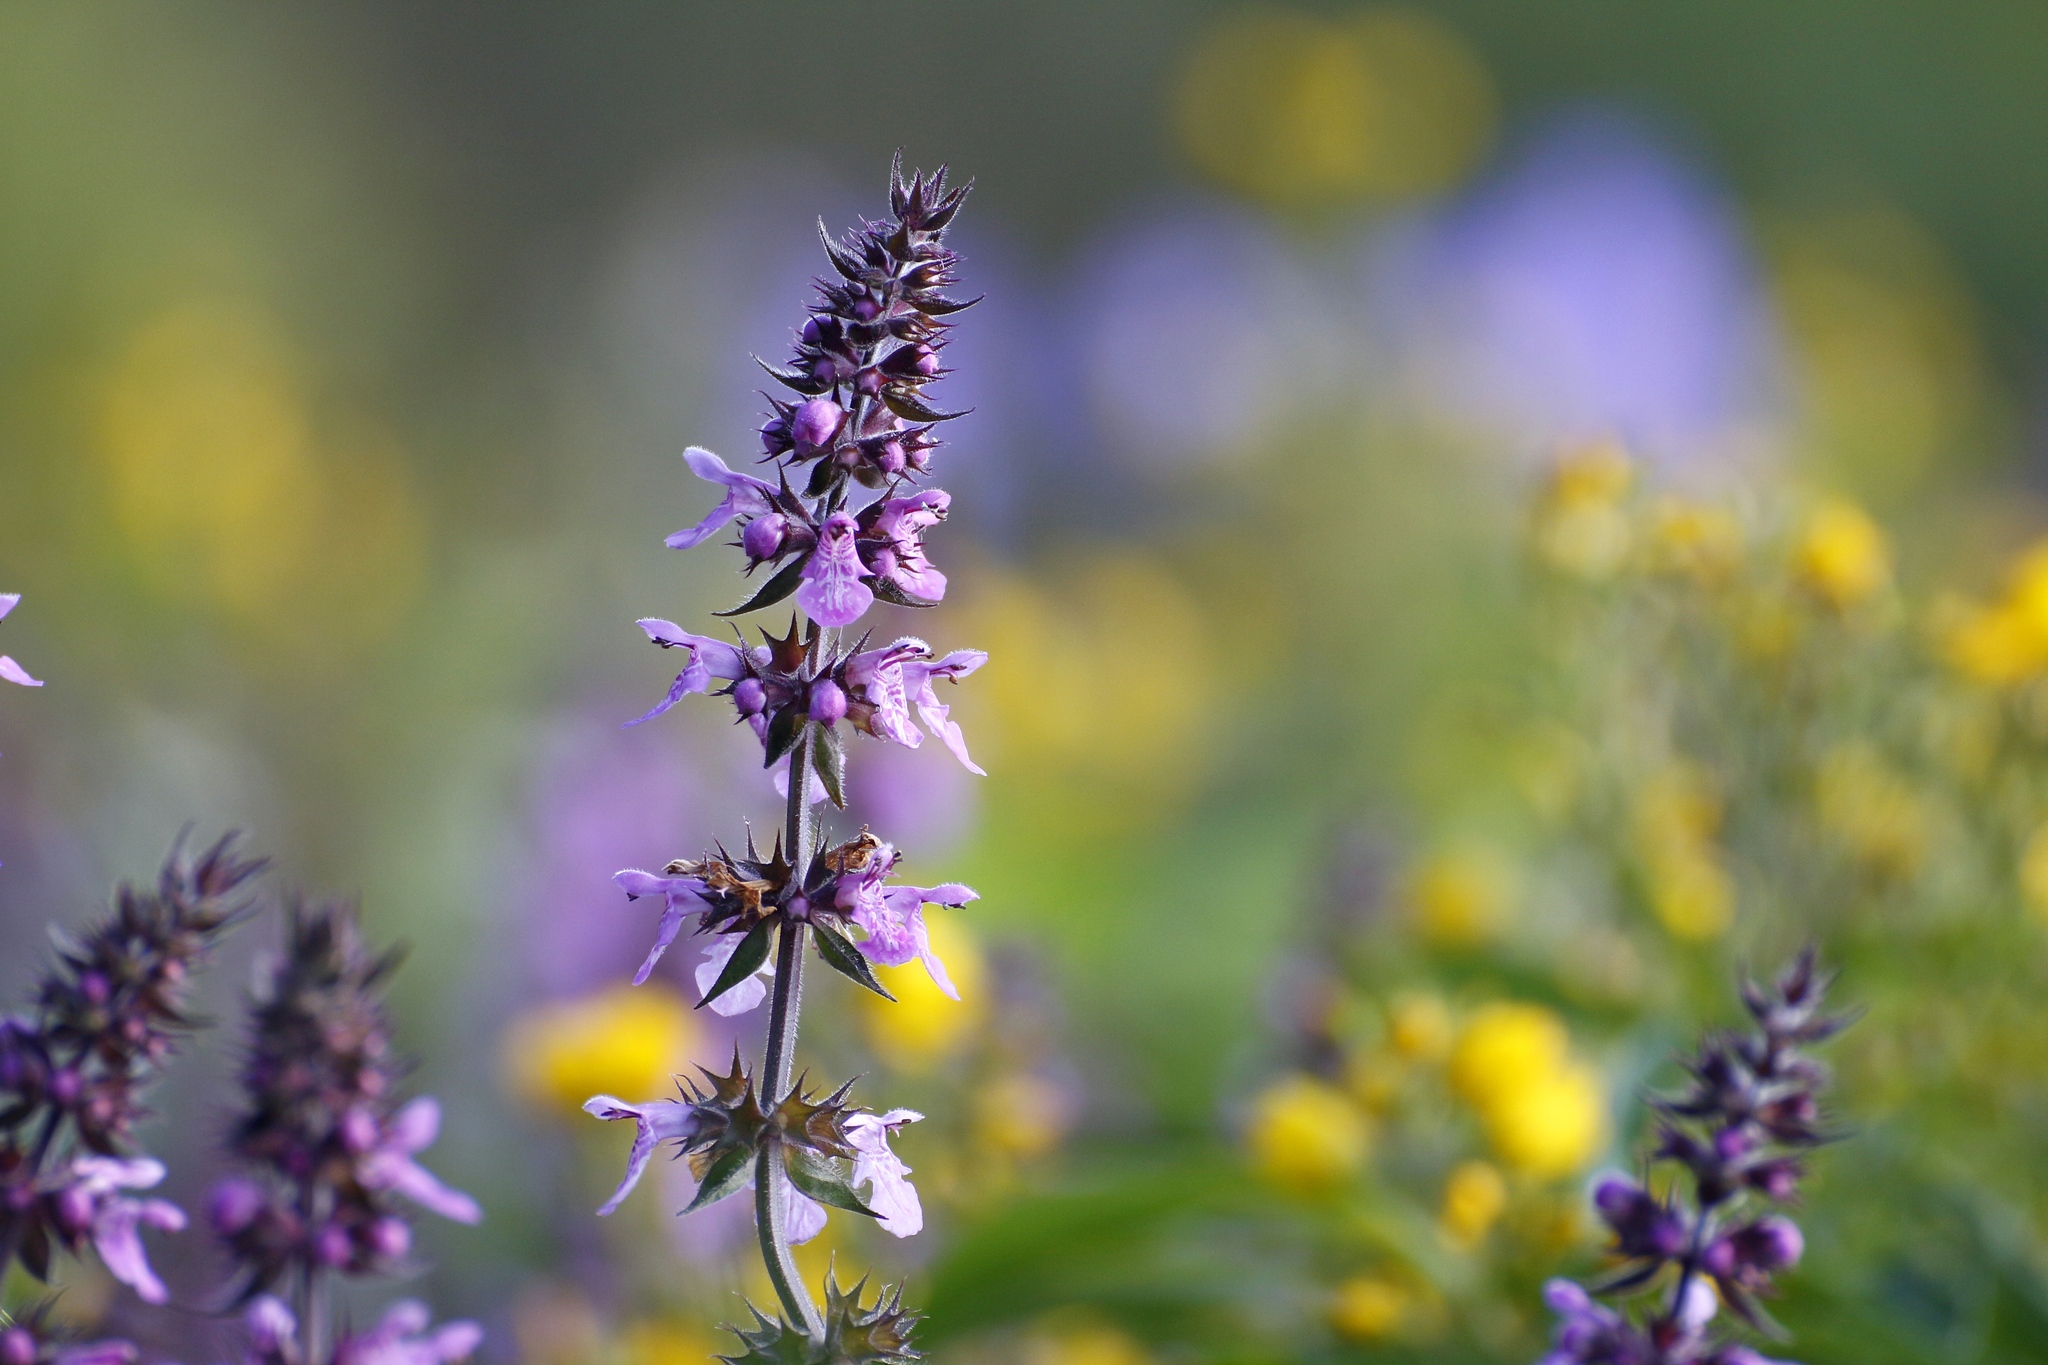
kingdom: Plantae
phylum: Tracheophyta
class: Magnoliopsida
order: Lamiales
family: Lamiaceae
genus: Stachys
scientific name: Stachys palustris
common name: Marsh woundwort
